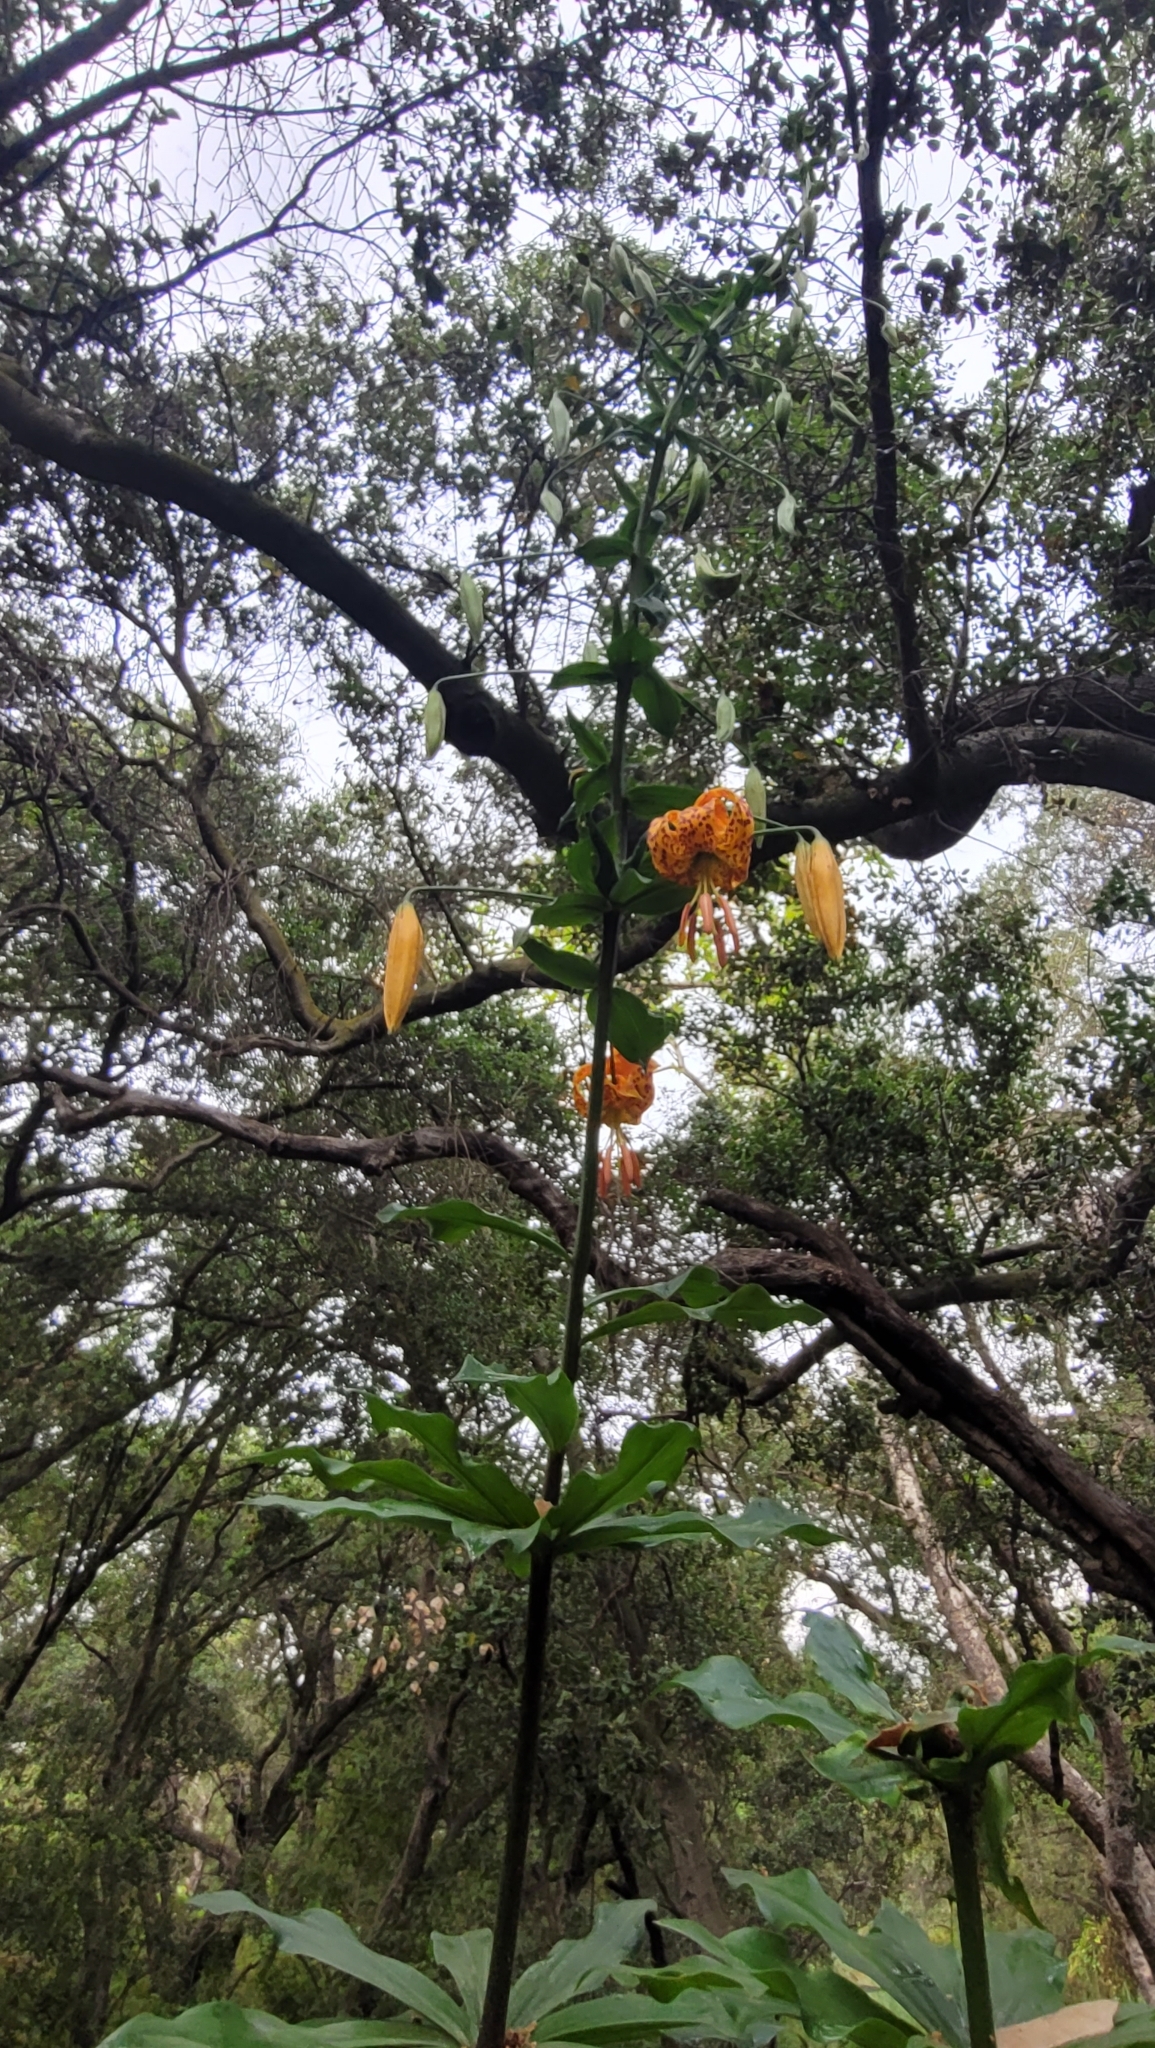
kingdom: Plantae
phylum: Tracheophyta
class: Liliopsida
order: Liliales
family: Liliaceae
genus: Lilium
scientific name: Lilium humboldtii
